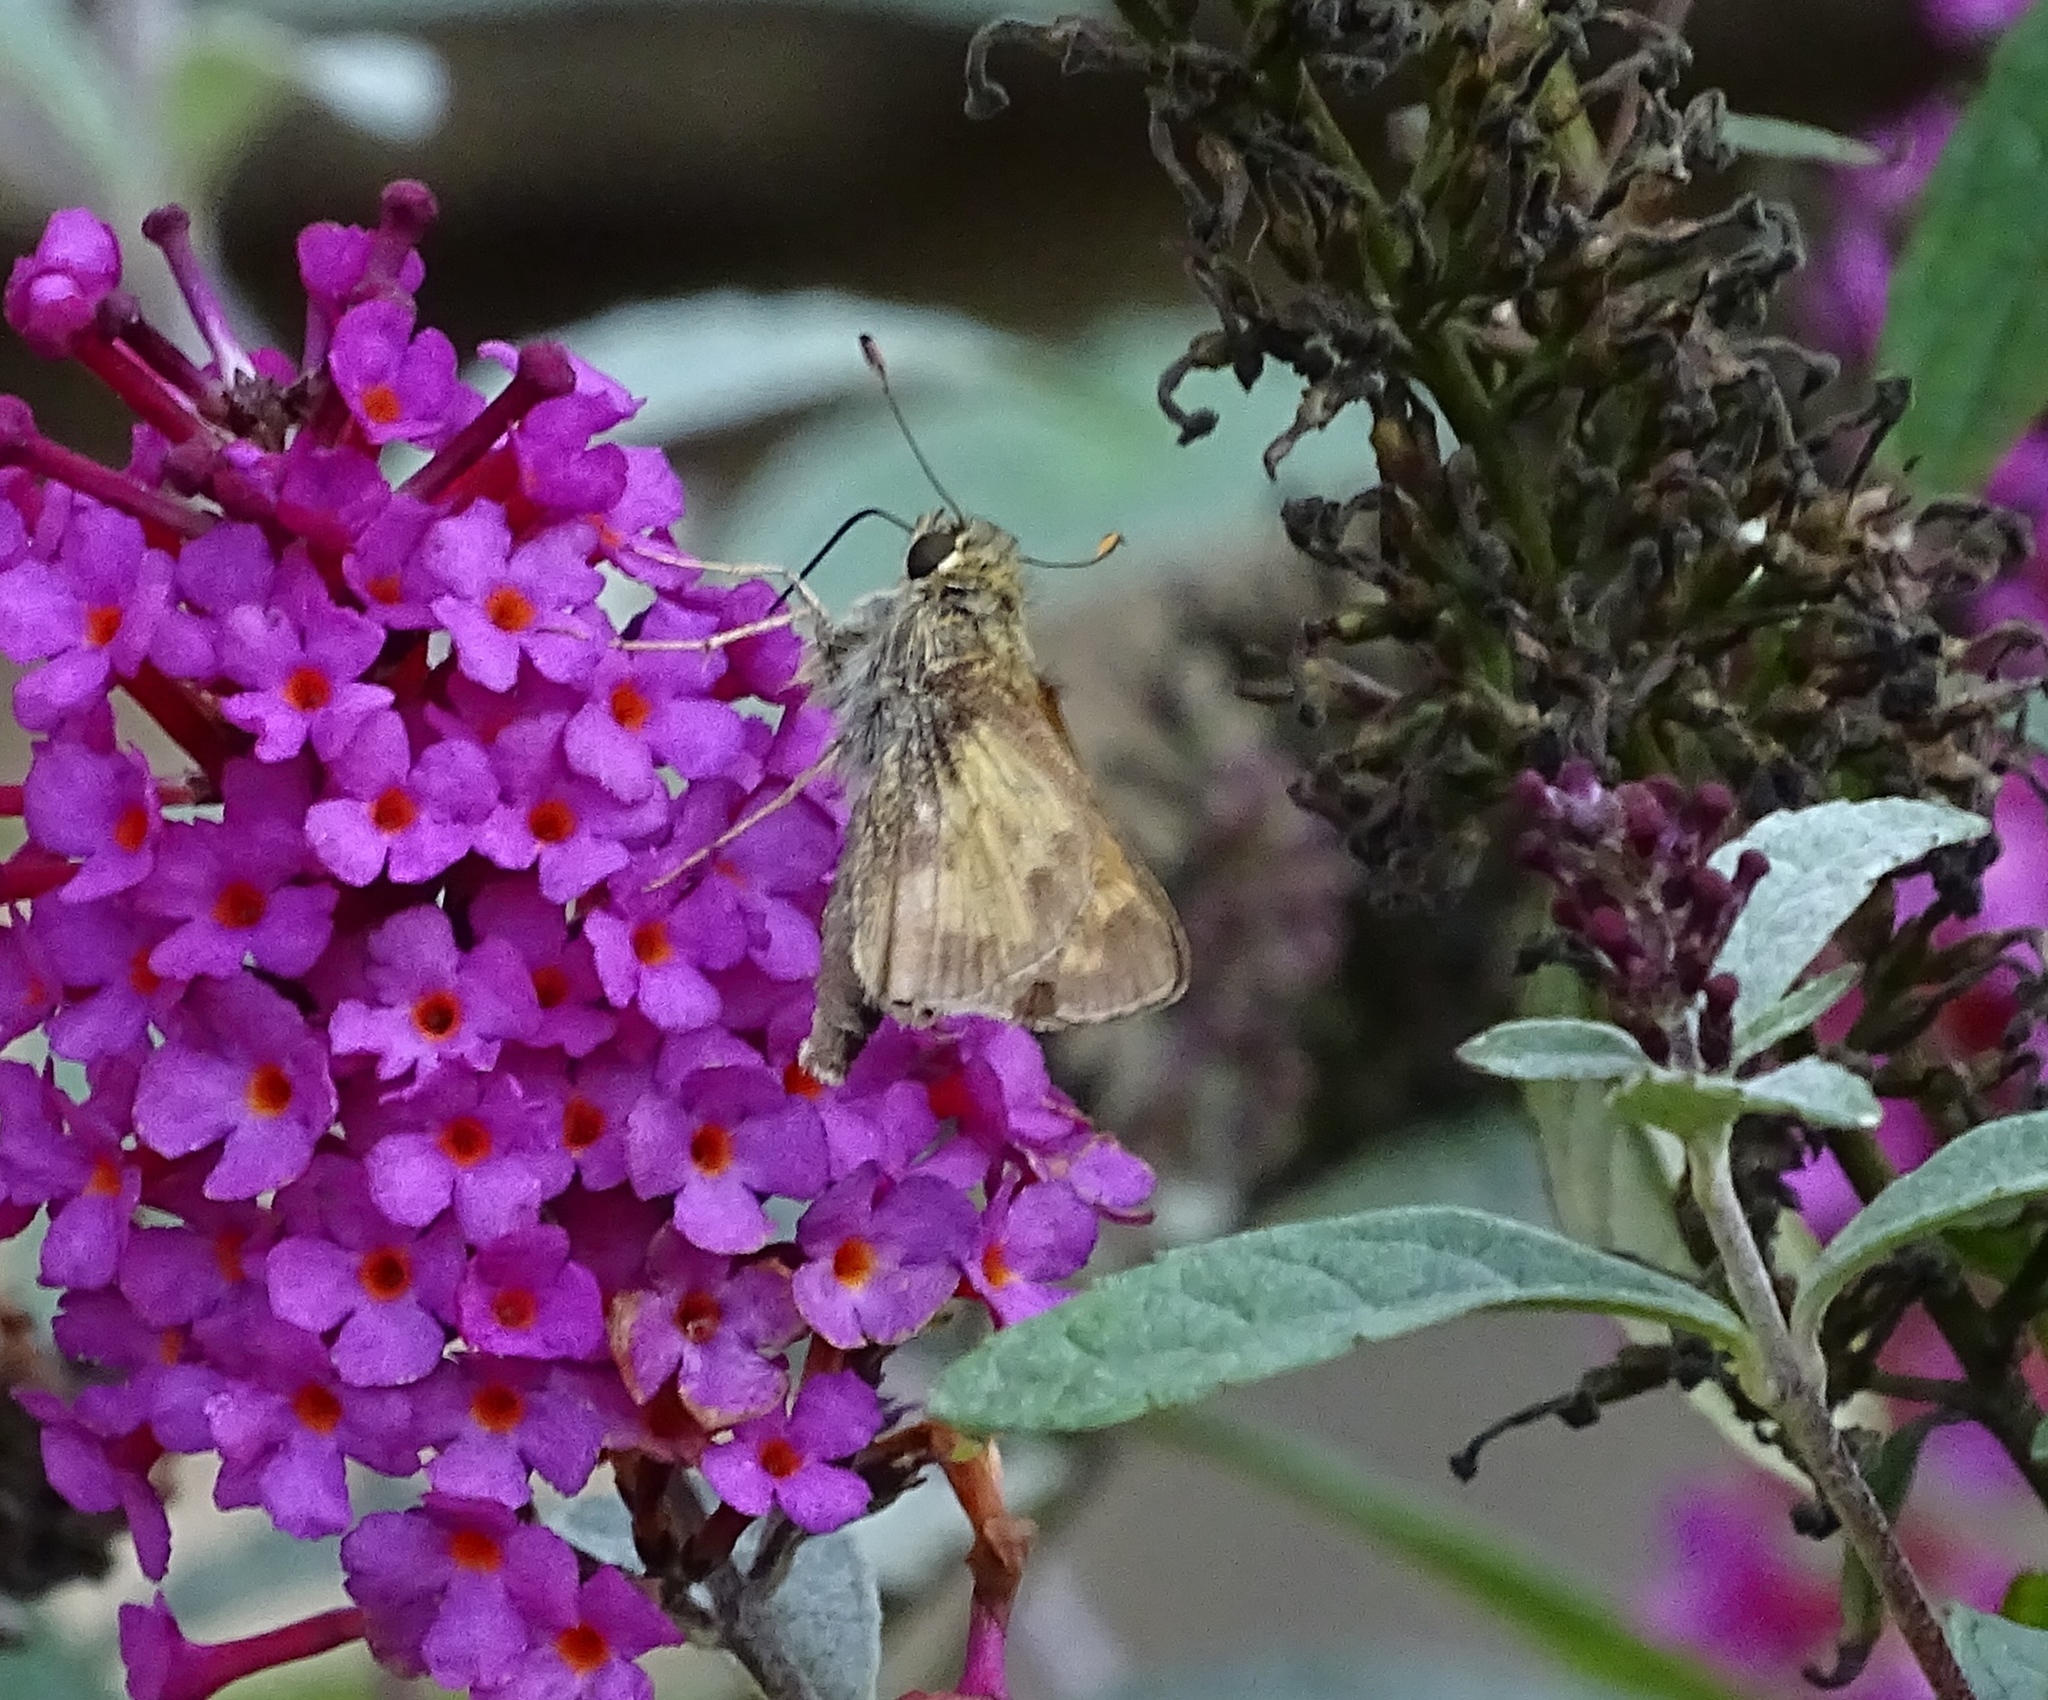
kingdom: Animalia
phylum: Arthropoda
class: Insecta
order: Lepidoptera
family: Hesperiidae
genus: Atalopedes
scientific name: Atalopedes
